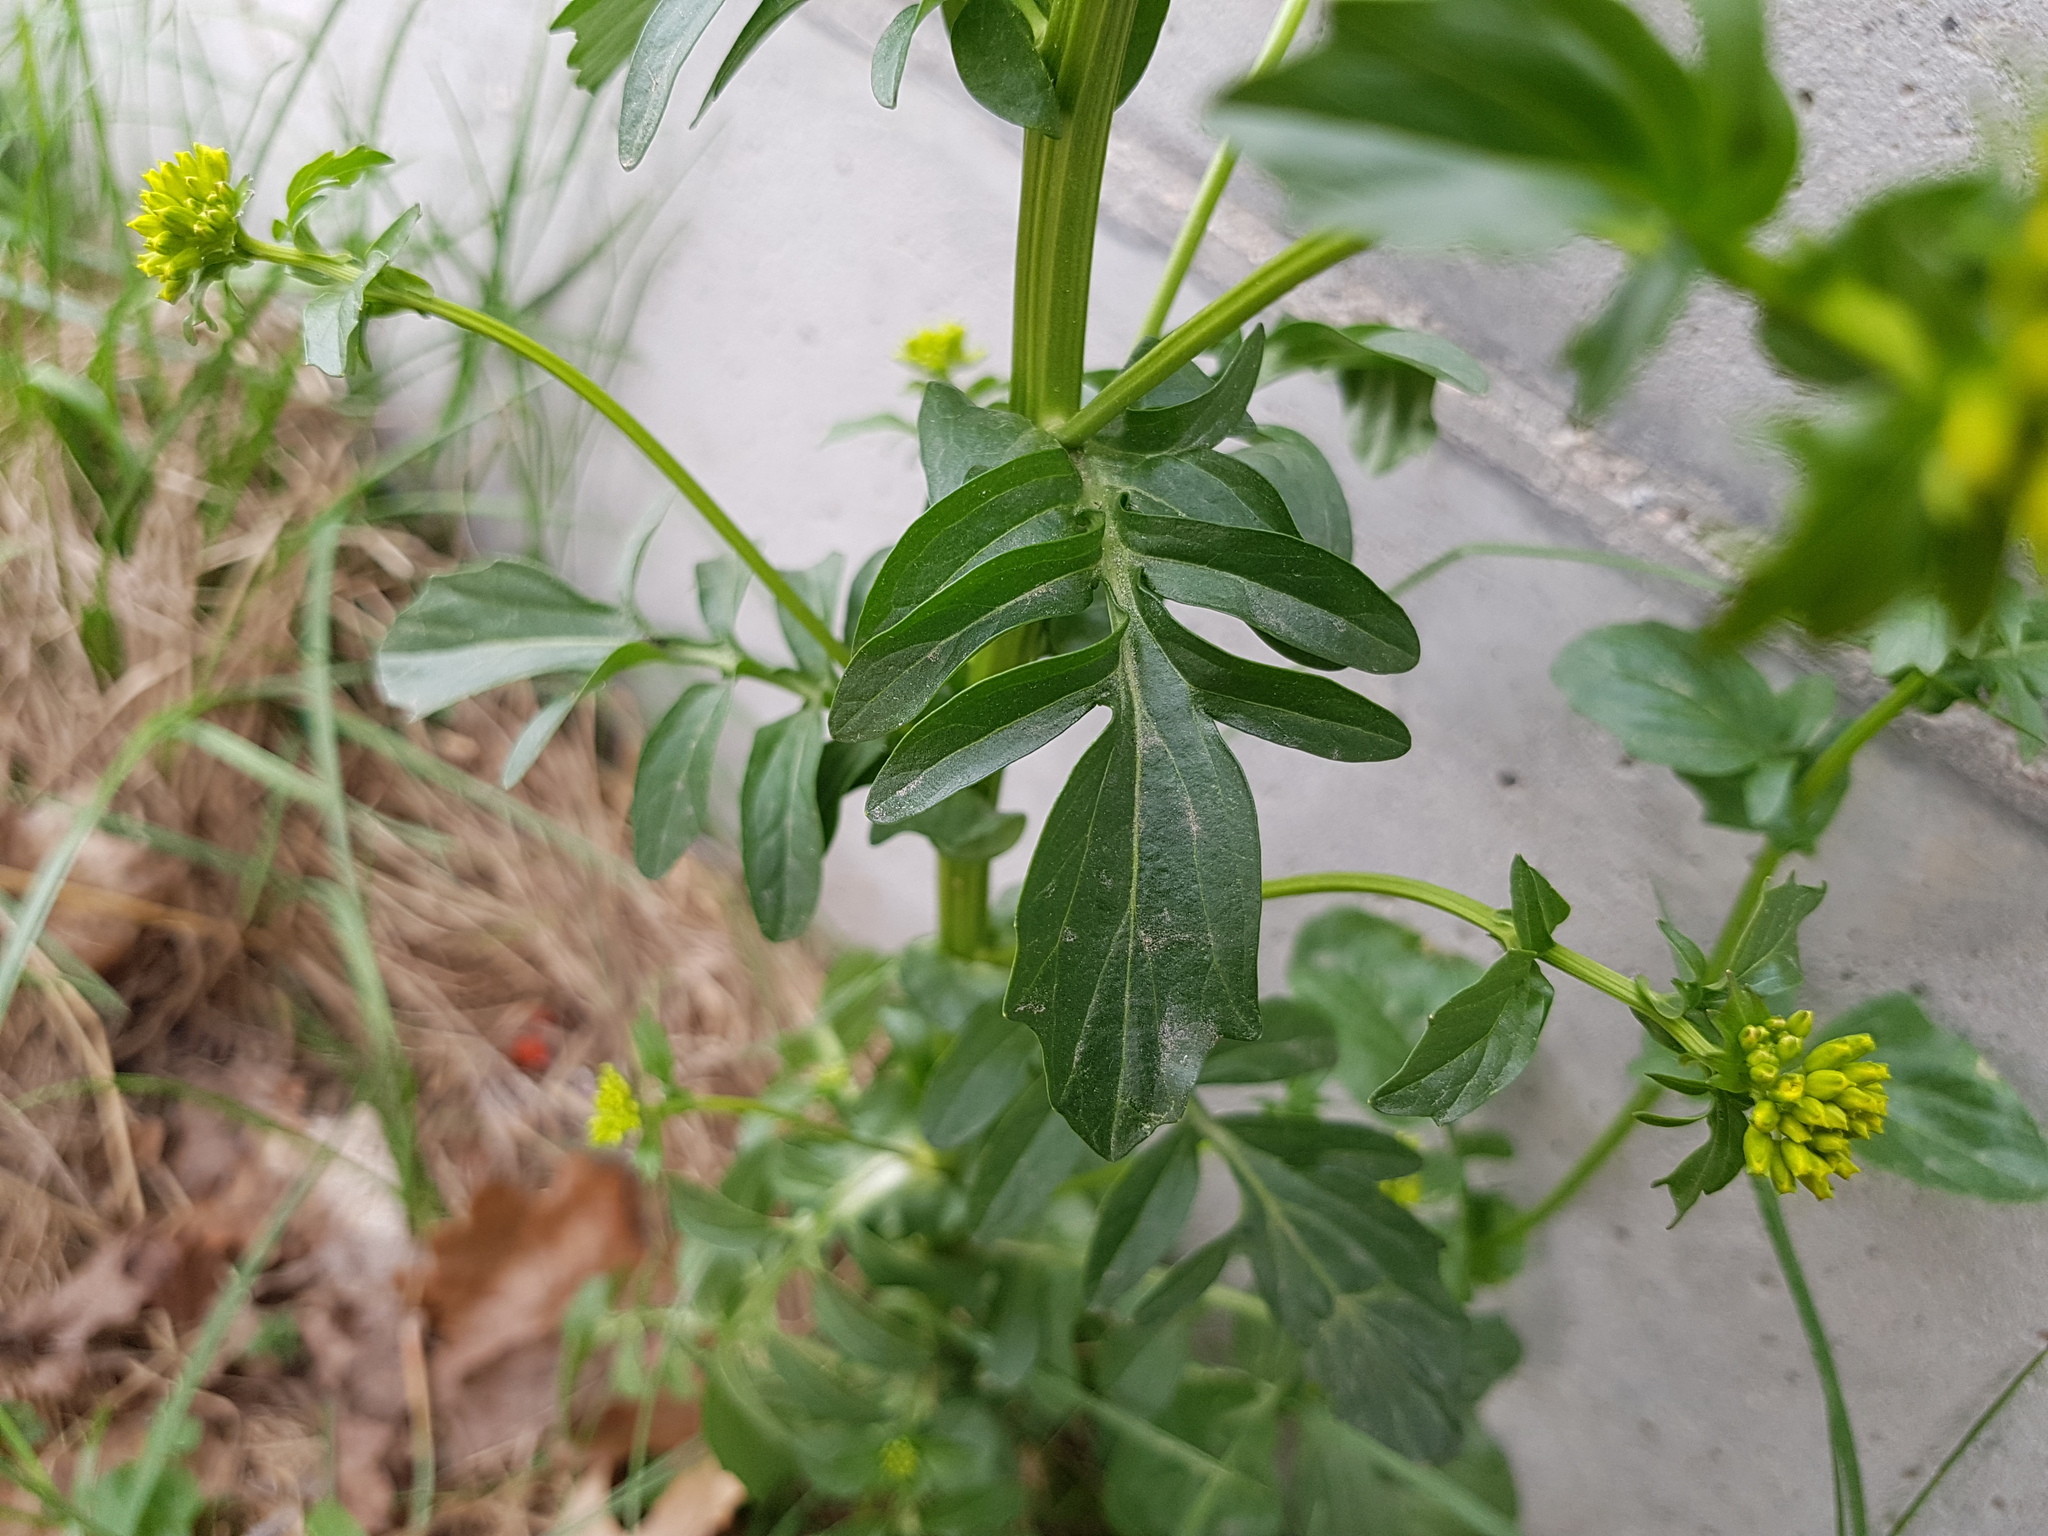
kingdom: Plantae
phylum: Tracheophyta
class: Magnoliopsida
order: Brassicales
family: Brassicaceae
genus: Barbarea
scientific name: Barbarea vulgaris
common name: Cressy-greens
